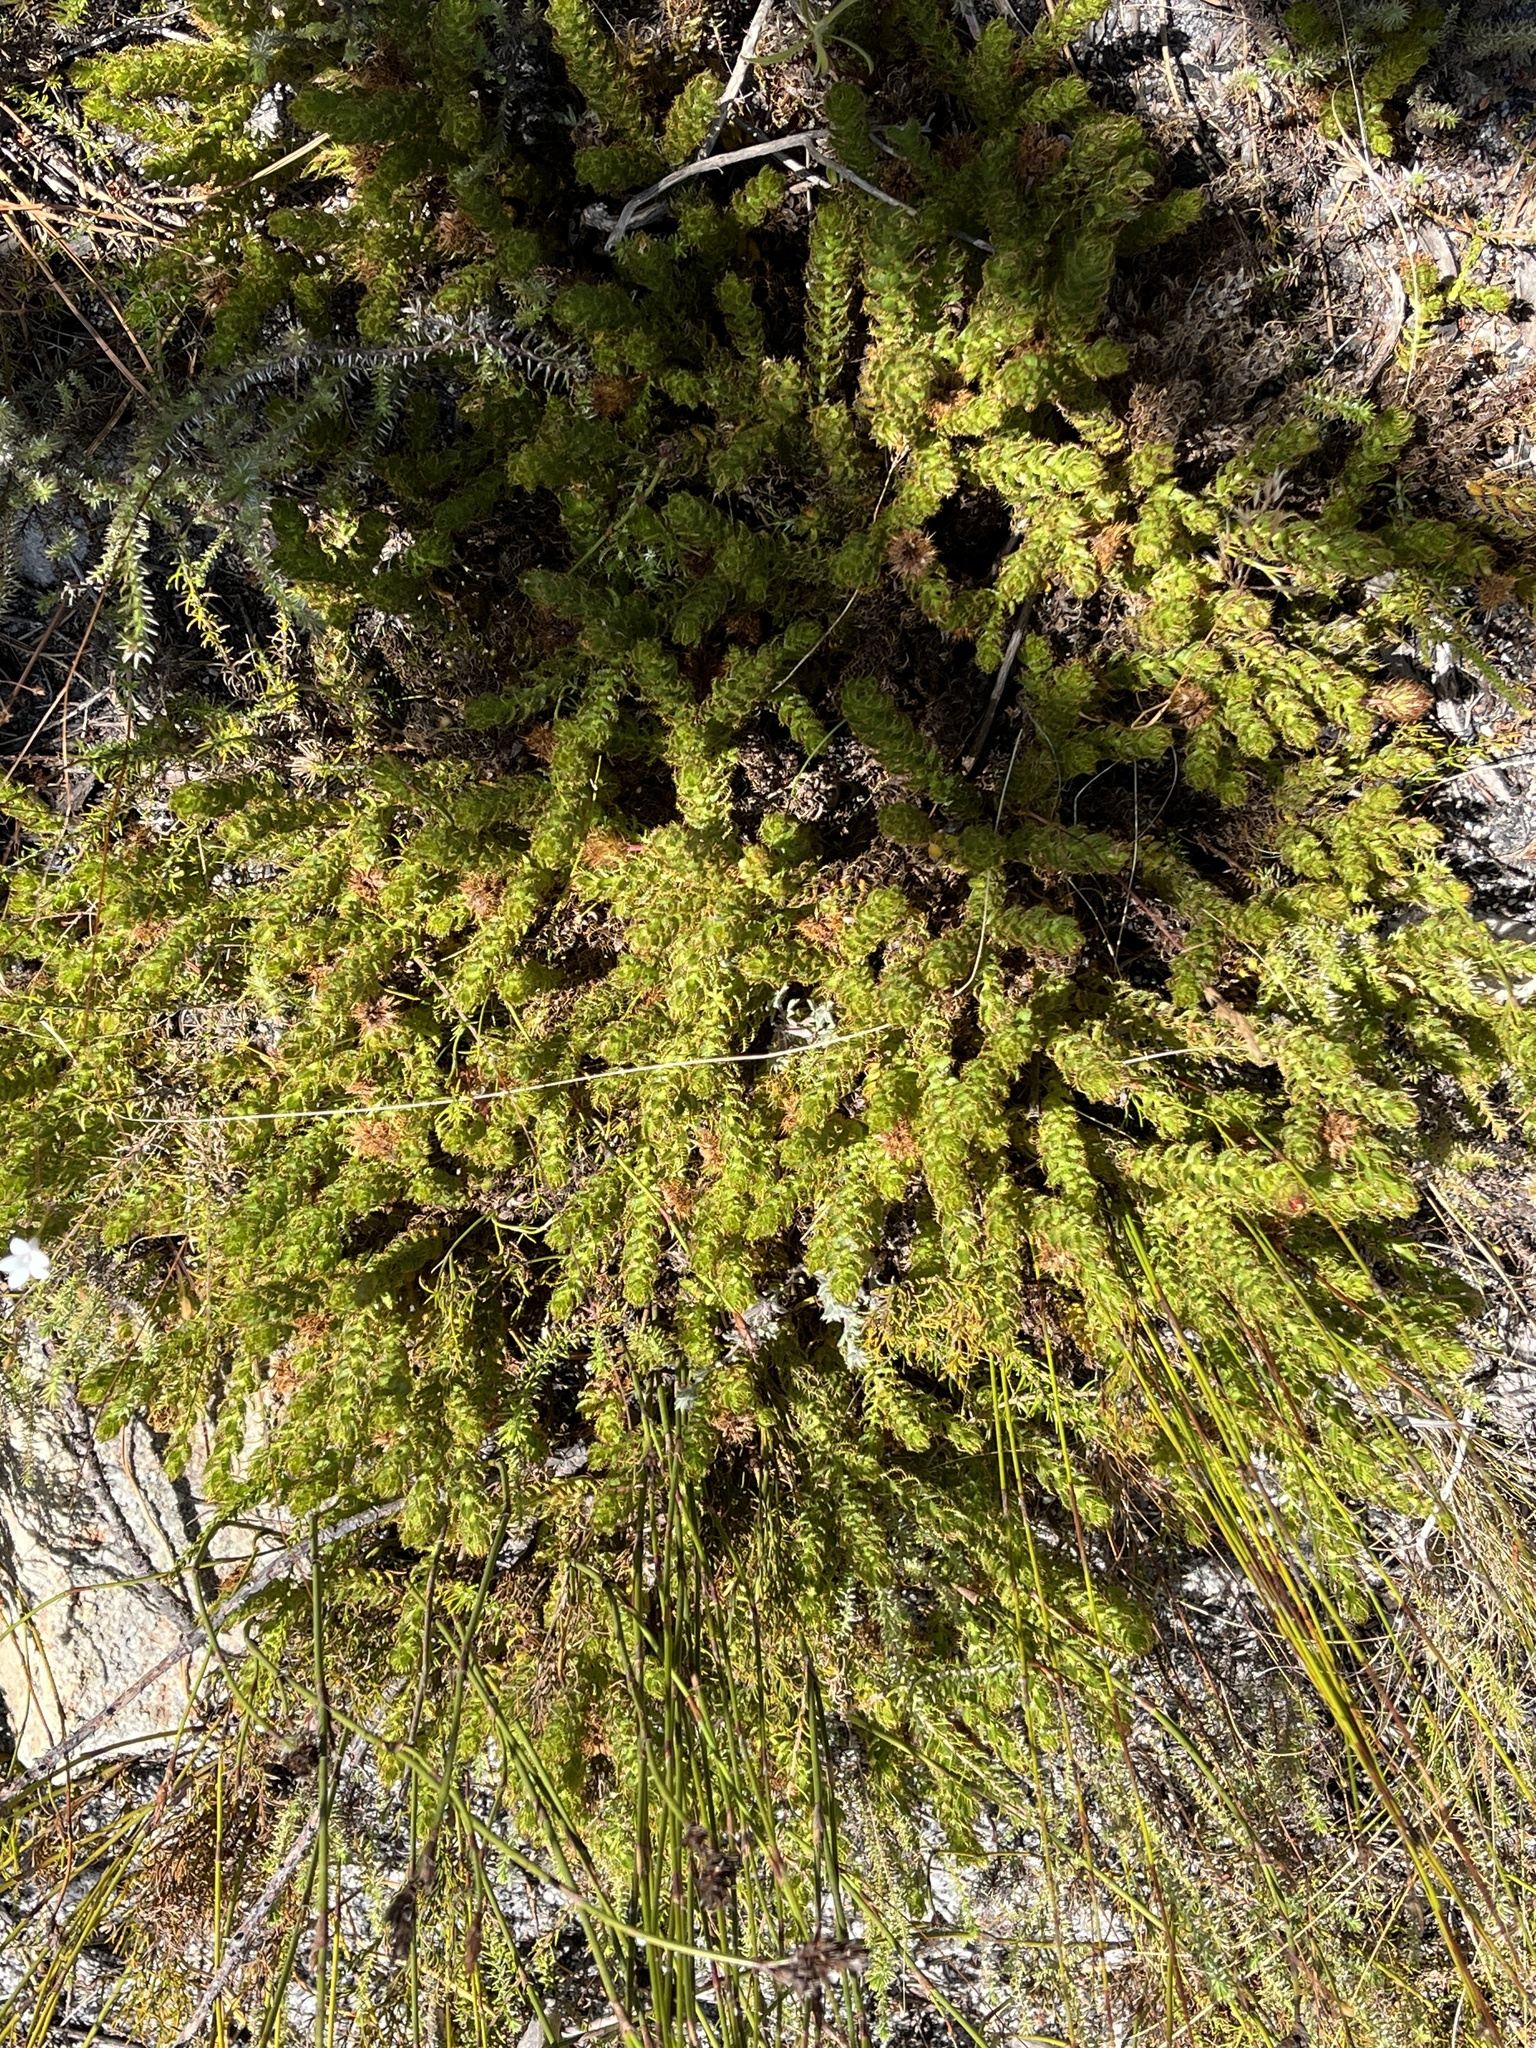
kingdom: Plantae
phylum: Tracheophyta
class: Magnoliopsida
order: Asterales
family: Asteraceae
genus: Cullumia
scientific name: Cullumia selago
